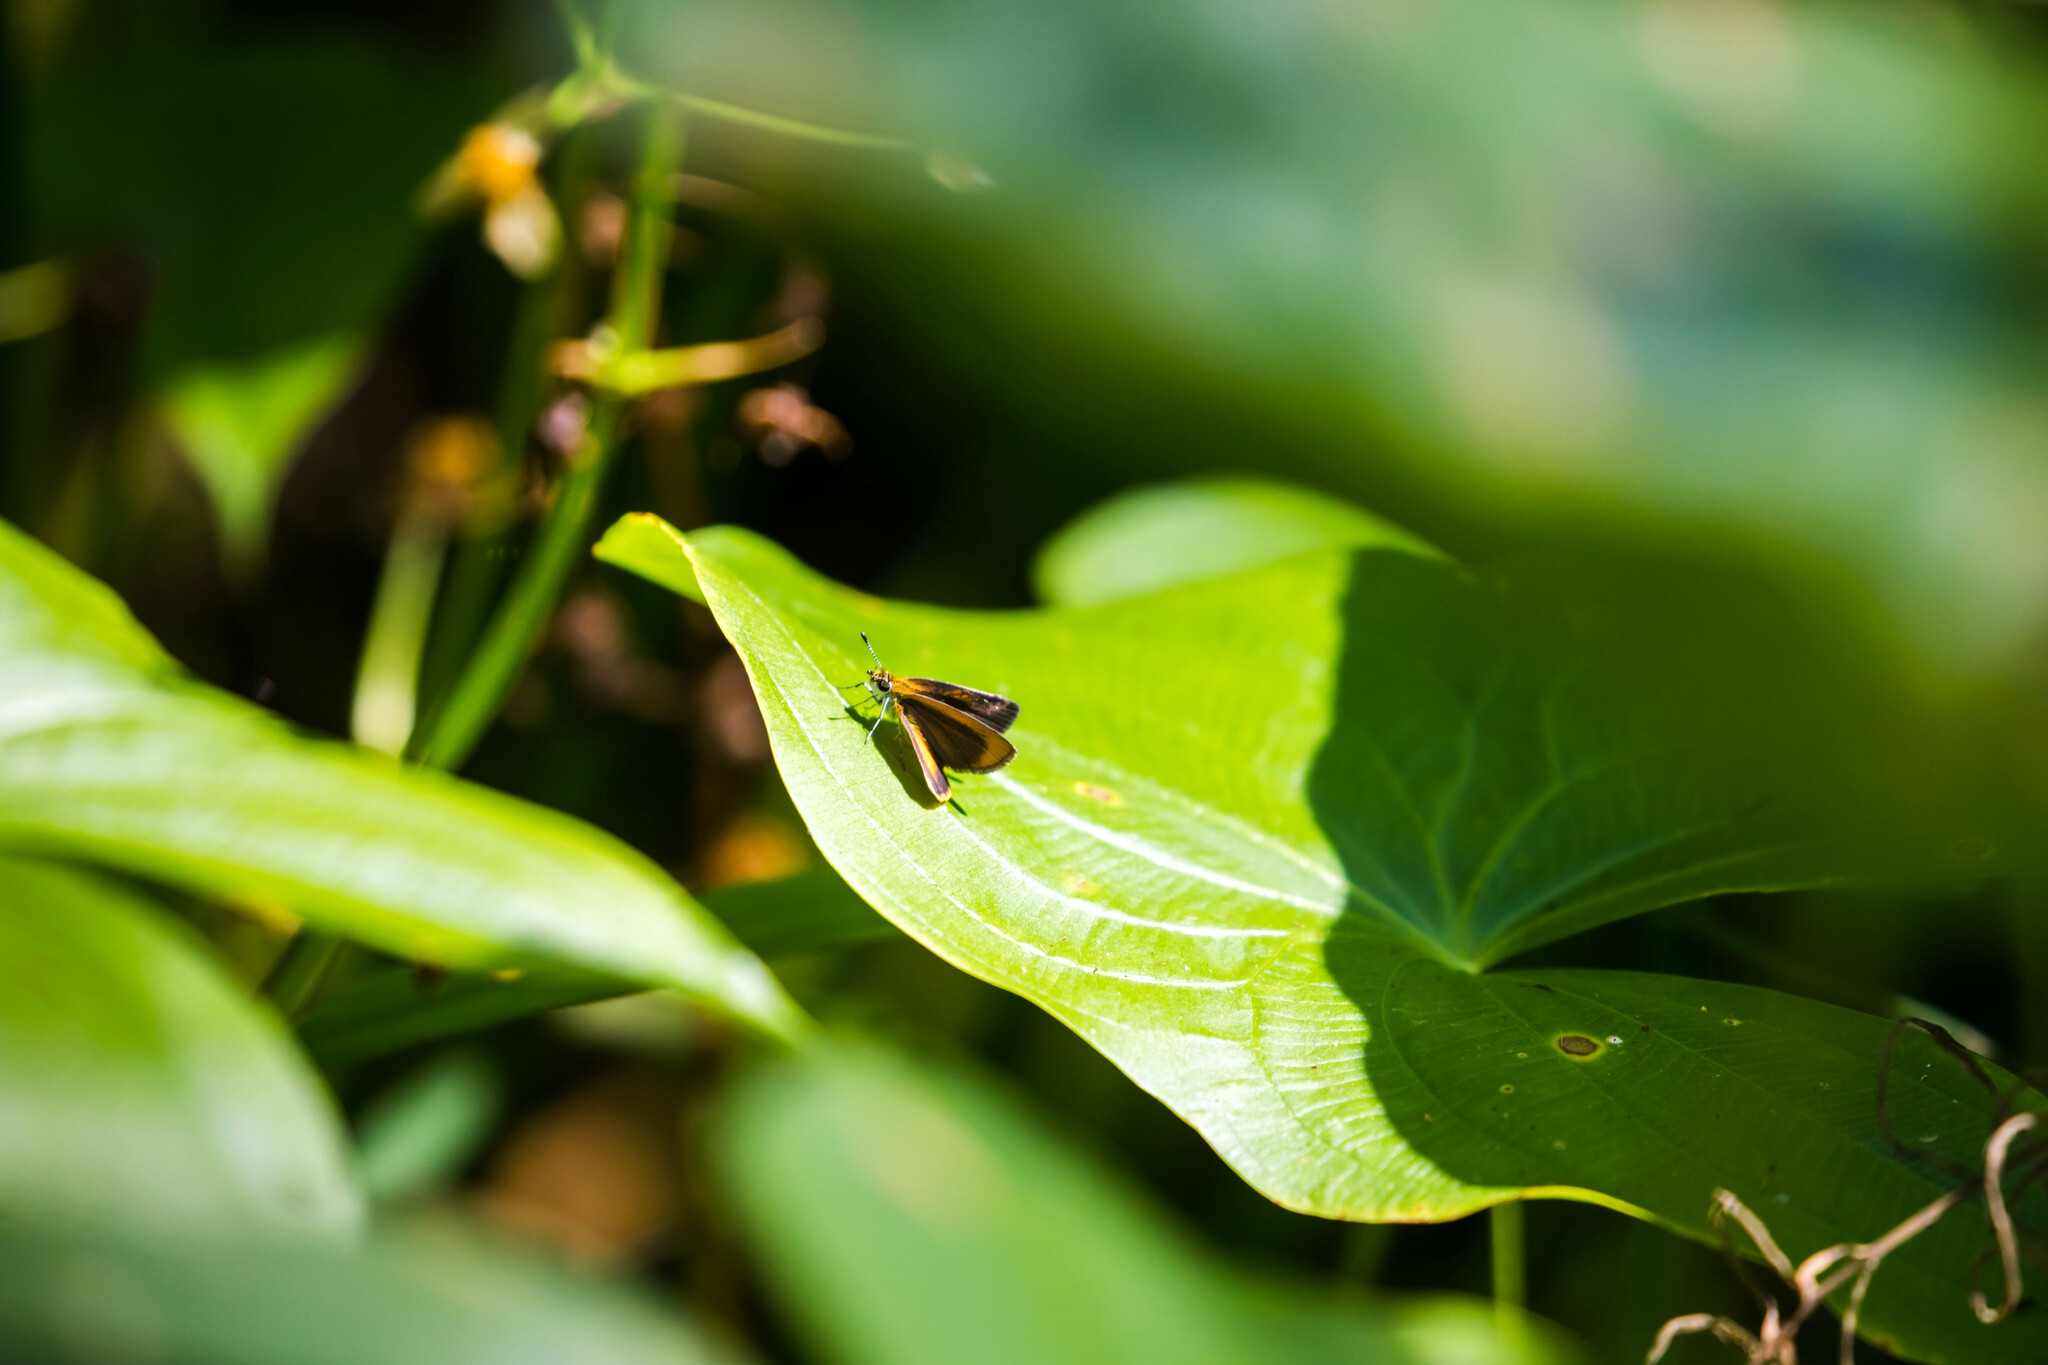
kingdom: Animalia
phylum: Arthropoda
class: Insecta
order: Lepidoptera
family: Hesperiidae
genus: Ancyloxypha
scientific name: Ancyloxypha numitor
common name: Least skipper
